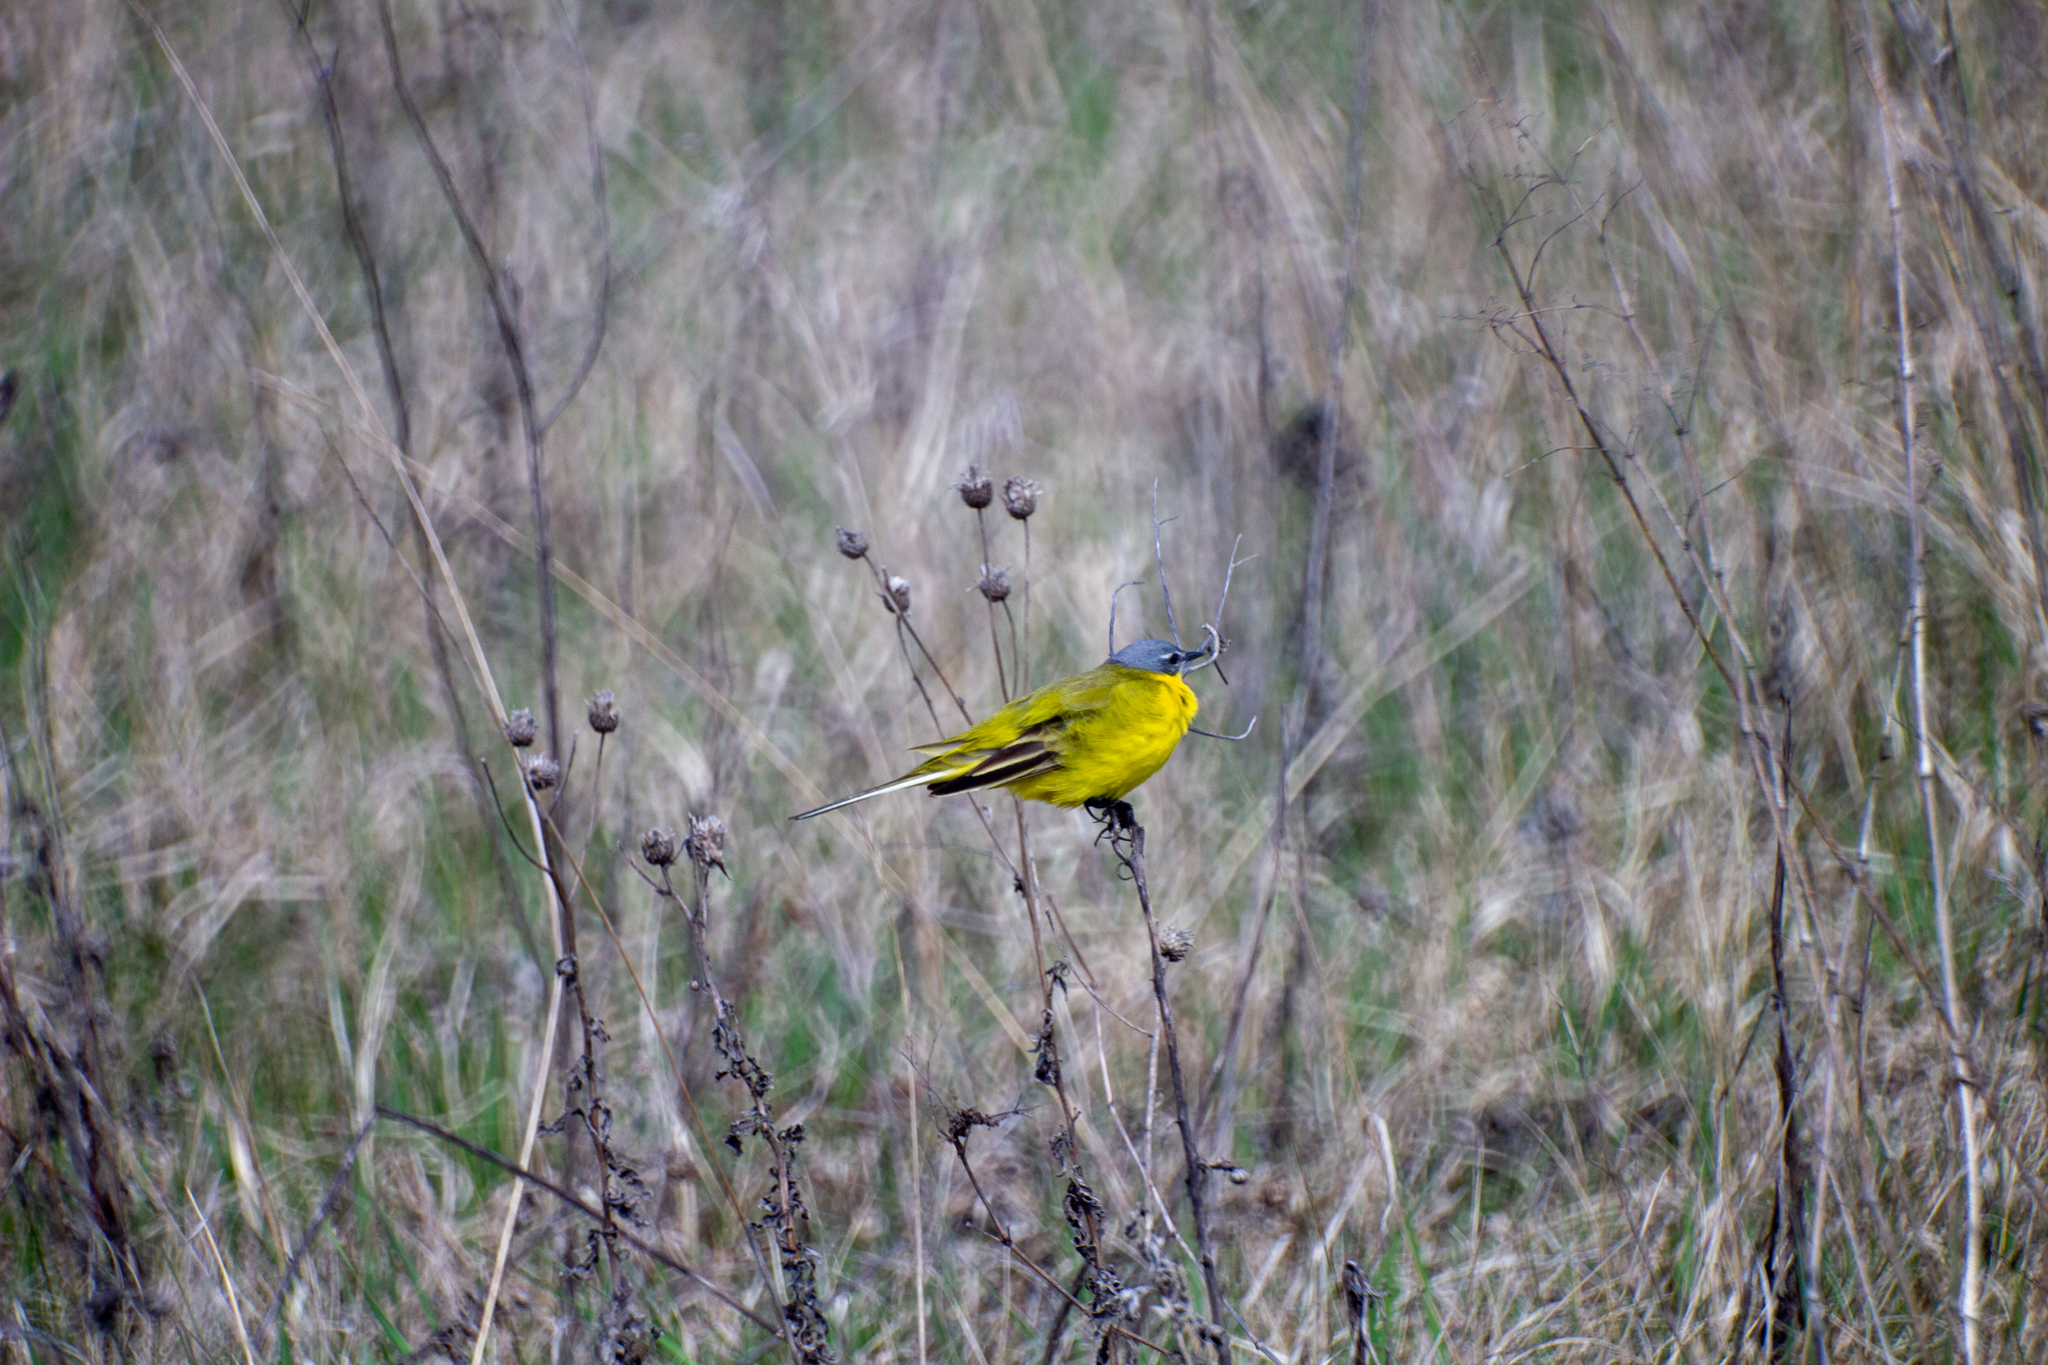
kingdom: Animalia
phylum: Chordata
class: Aves
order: Passeriformes
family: Motacillidae
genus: Motacilla
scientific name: Motacilla flava
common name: Western yellow wagtail
